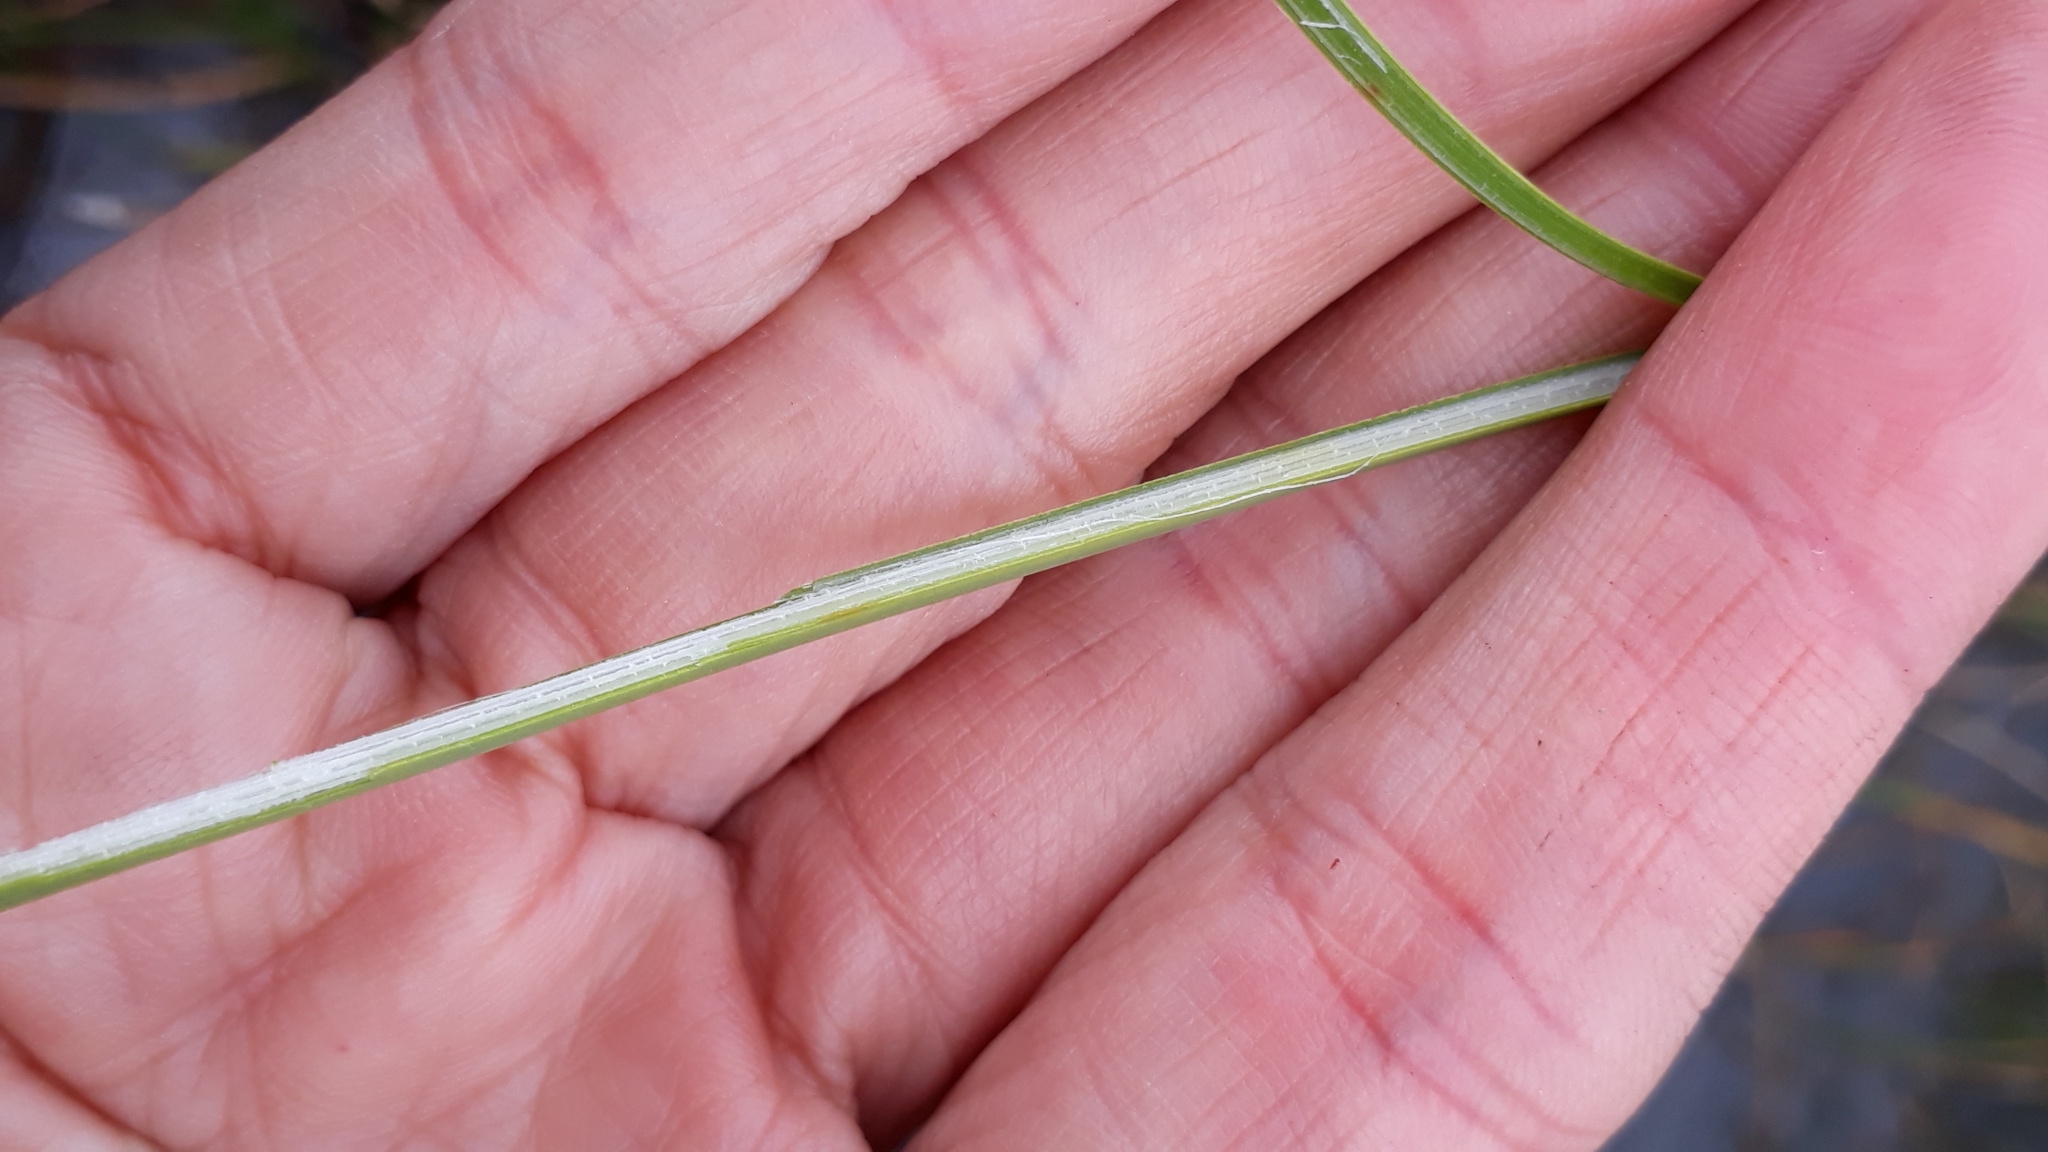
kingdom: Plantae
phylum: Tracheophyta
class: Liliopsida
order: Poales
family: Cyperaceae
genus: Schoenoplectus
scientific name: Schoenoplectus pungens
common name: Sharp club-rush
